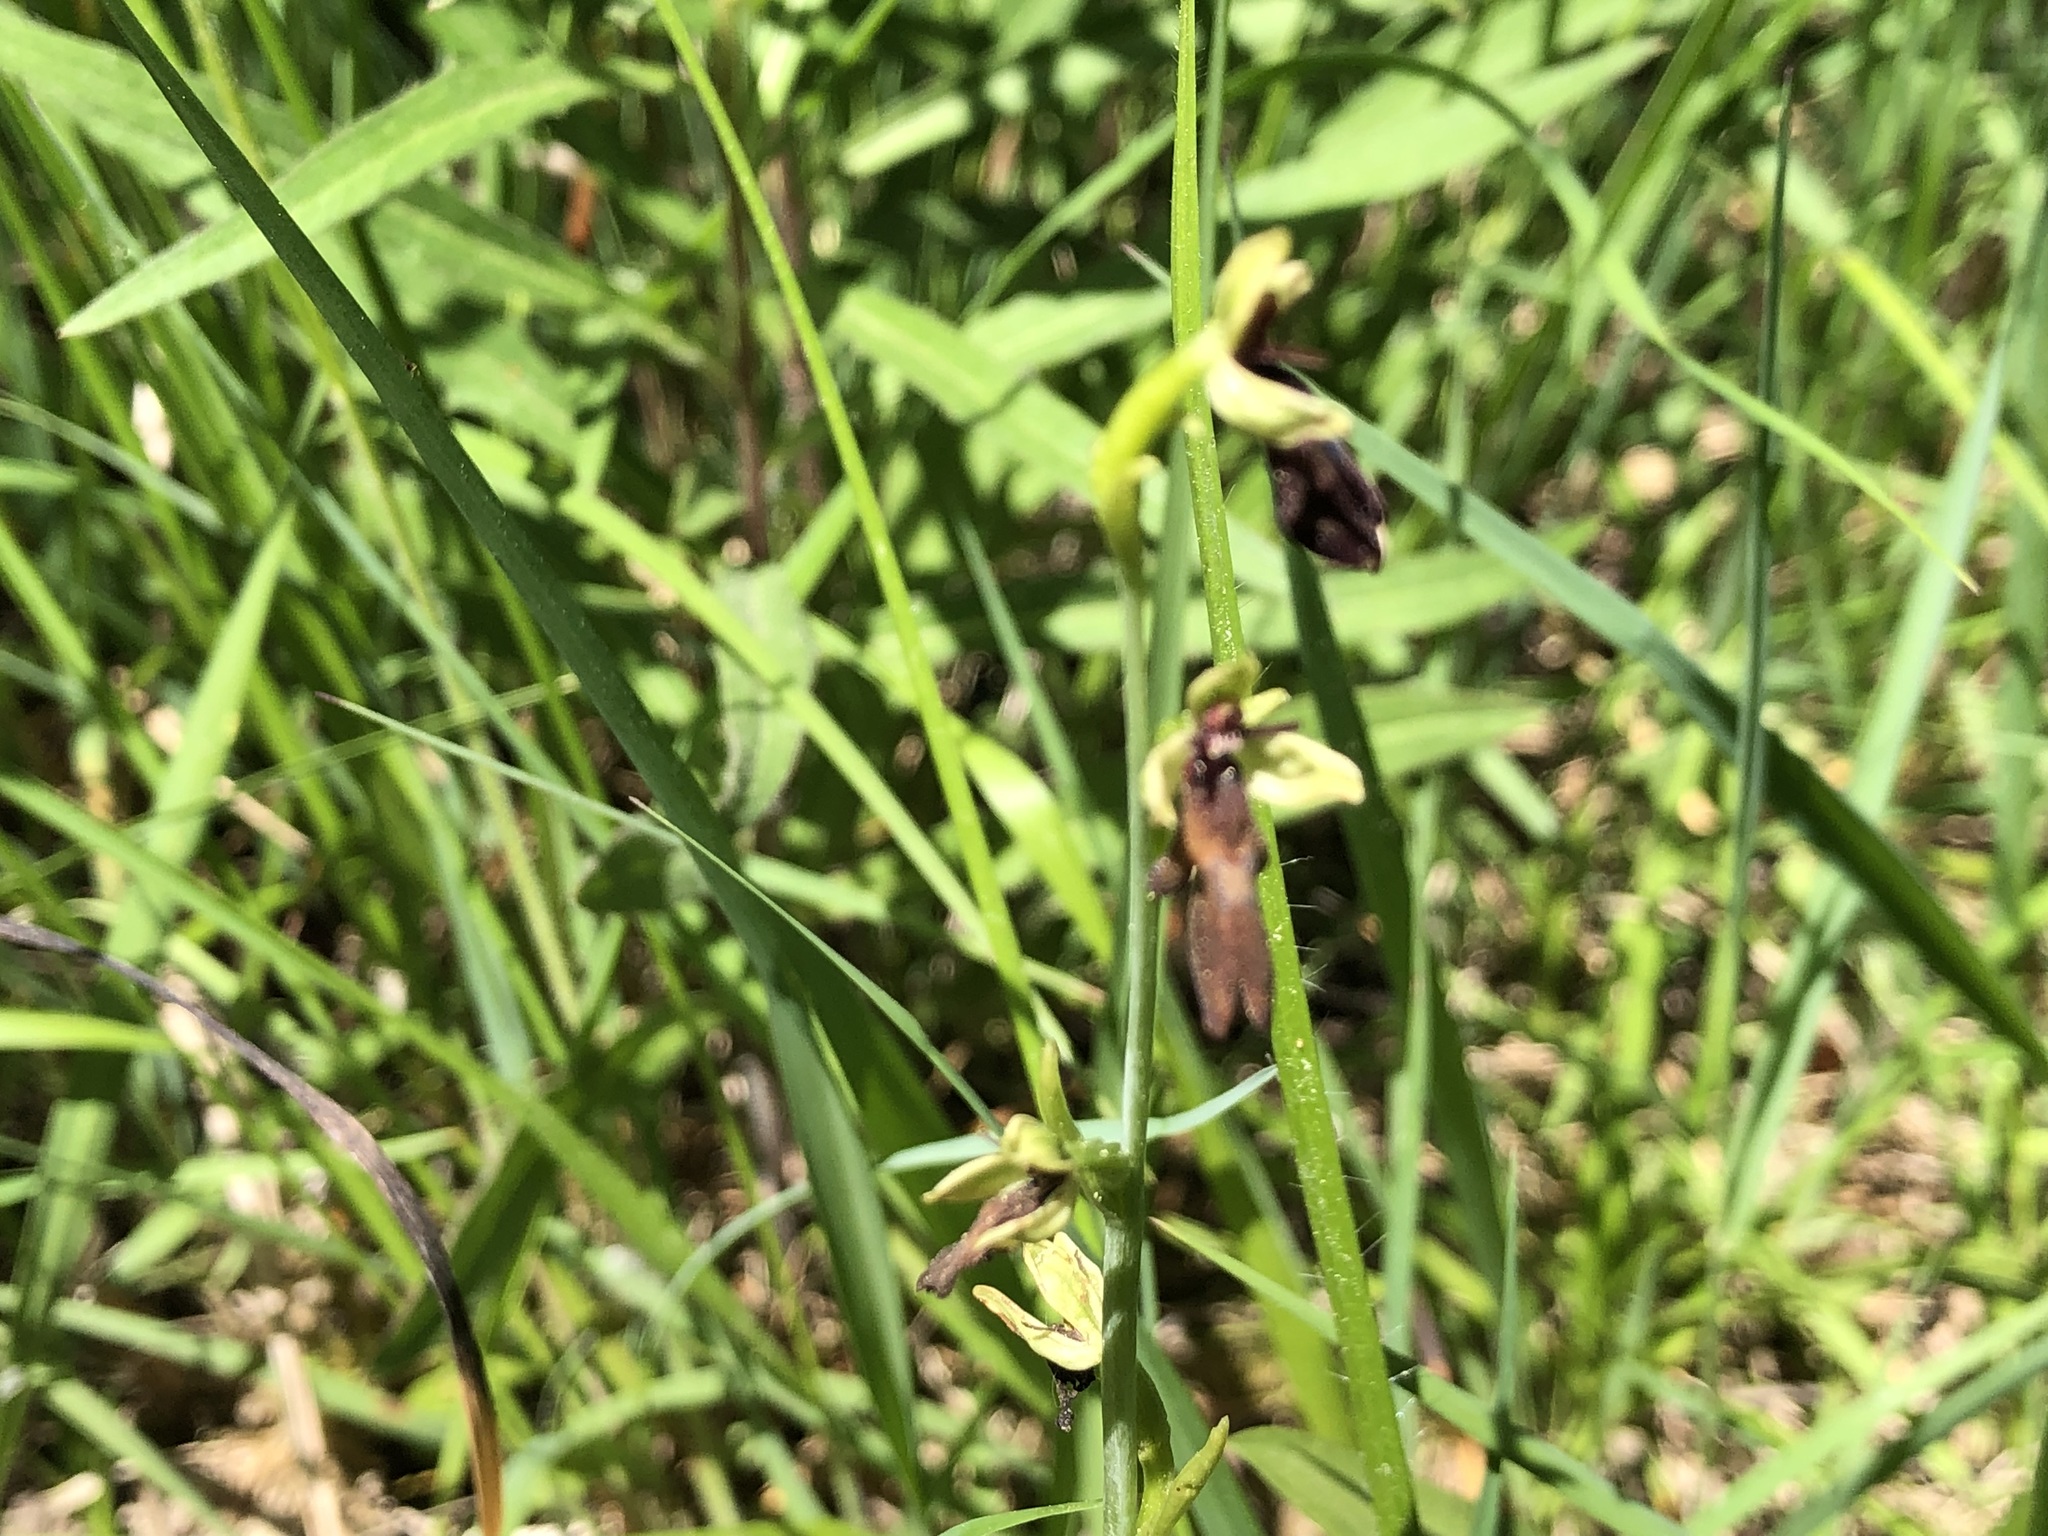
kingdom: Plantae
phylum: Tracheophyta
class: Liliopsida
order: Asparagales
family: Orchidaceae
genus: Ophrys
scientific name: Ophrys insectifera
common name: Fly orchid
